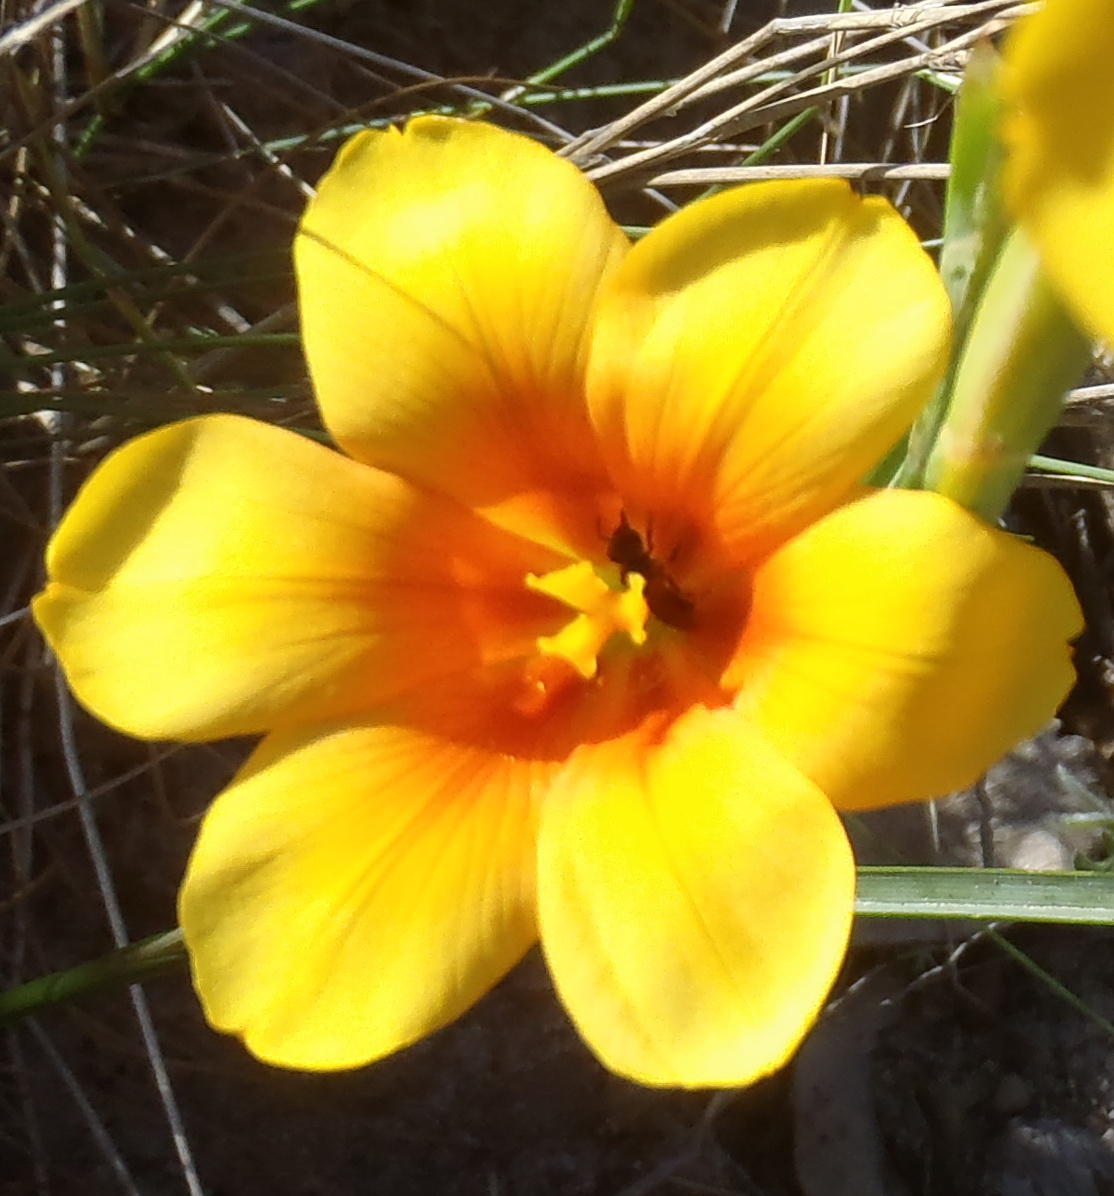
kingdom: Plantae
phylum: Tracheophyta
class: Liliopsida
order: Asparagales
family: Iridaceae
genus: Moraea
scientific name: Moraea ochroleuca
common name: Red tulp
